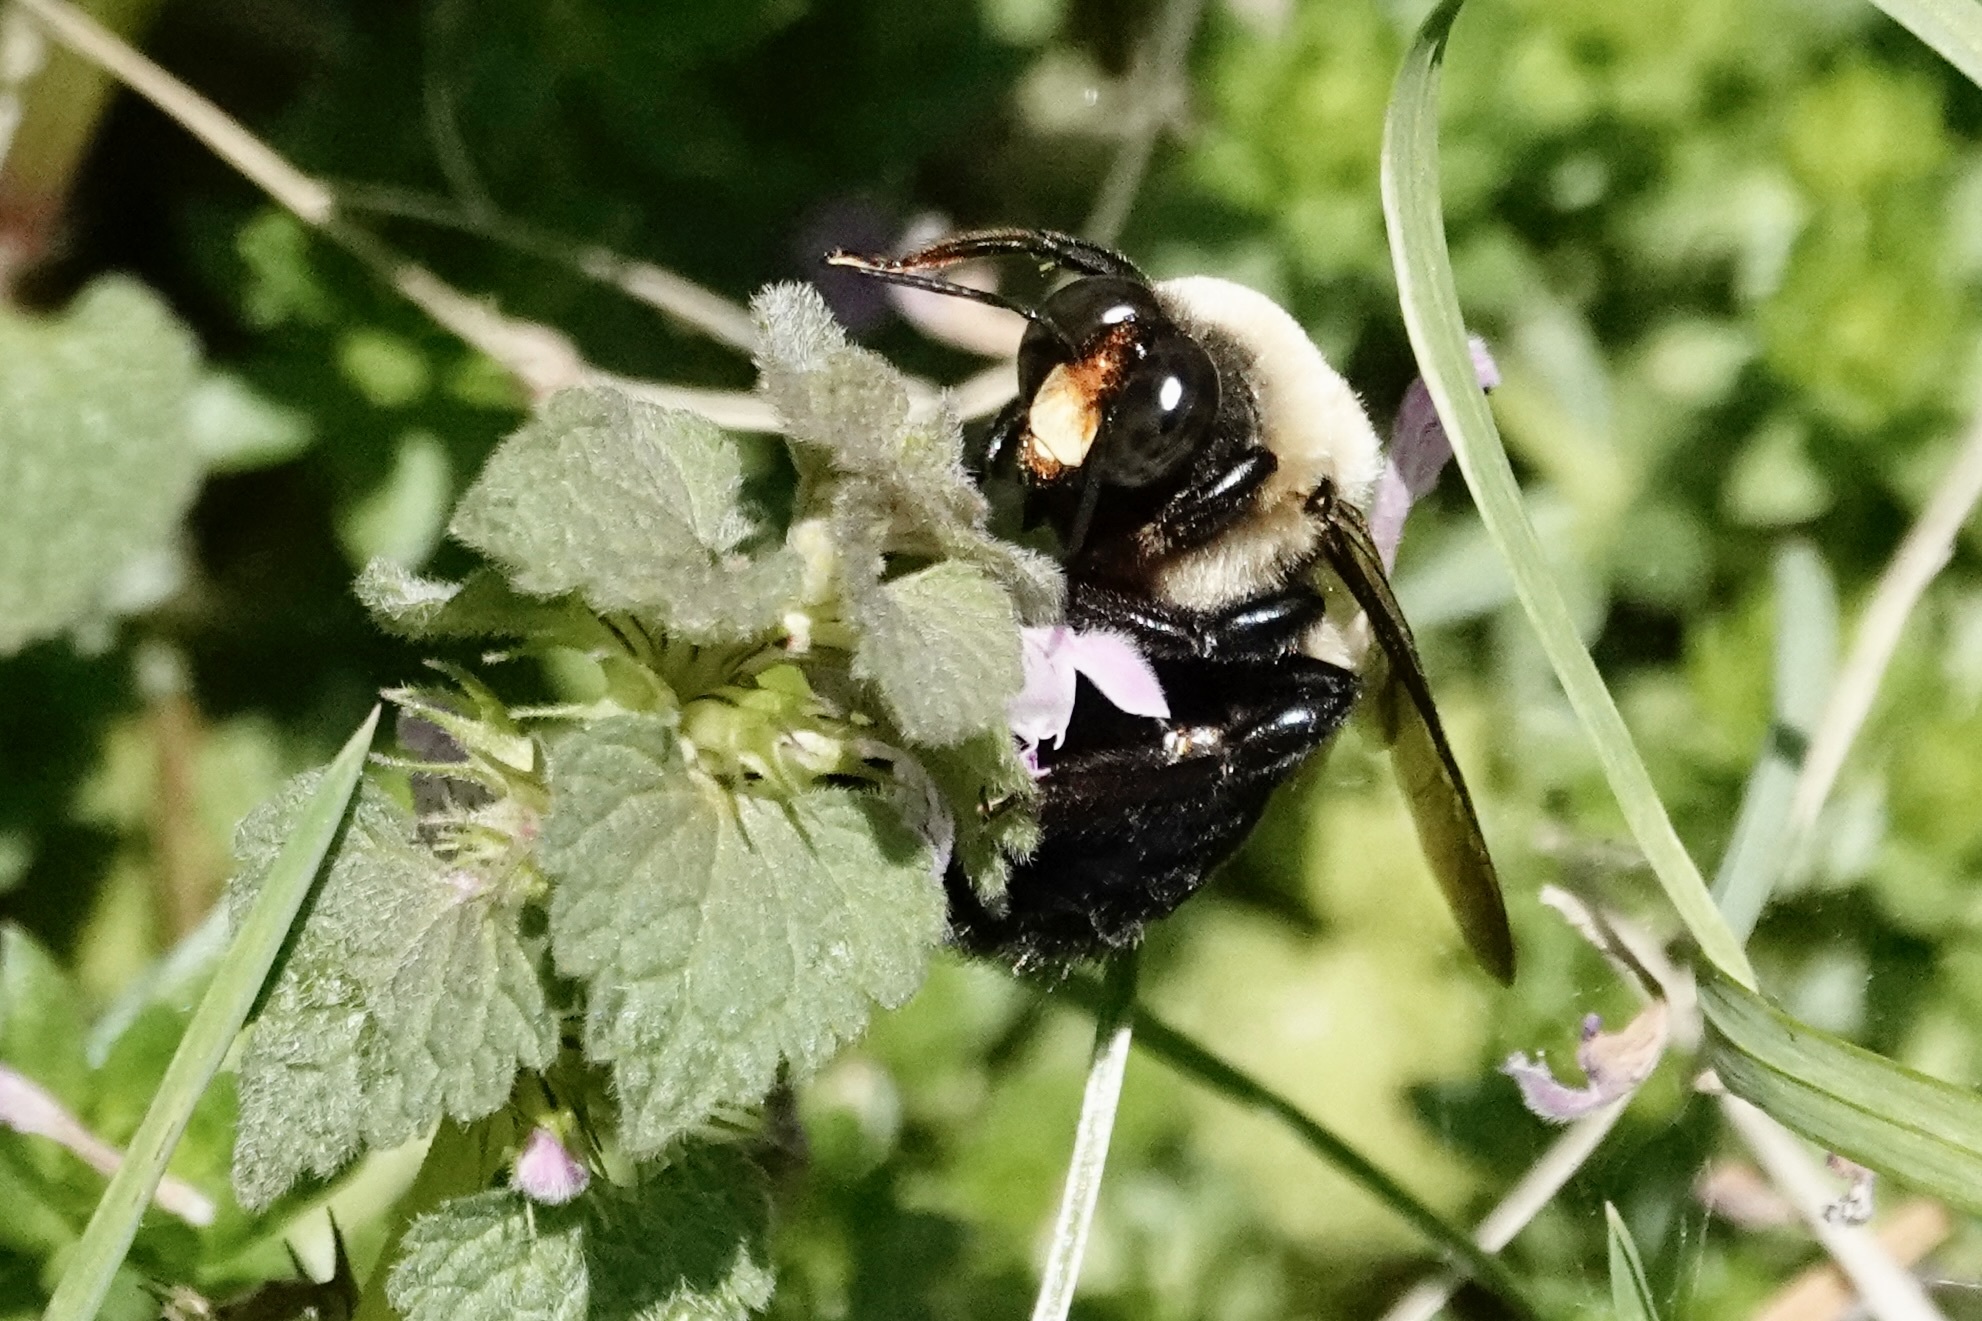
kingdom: Animalia
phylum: Arthropoda
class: Insecta
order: Hymenoptera
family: Apidae
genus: Xylocopa
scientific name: Xylocopa virginica
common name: Carpenter bee
